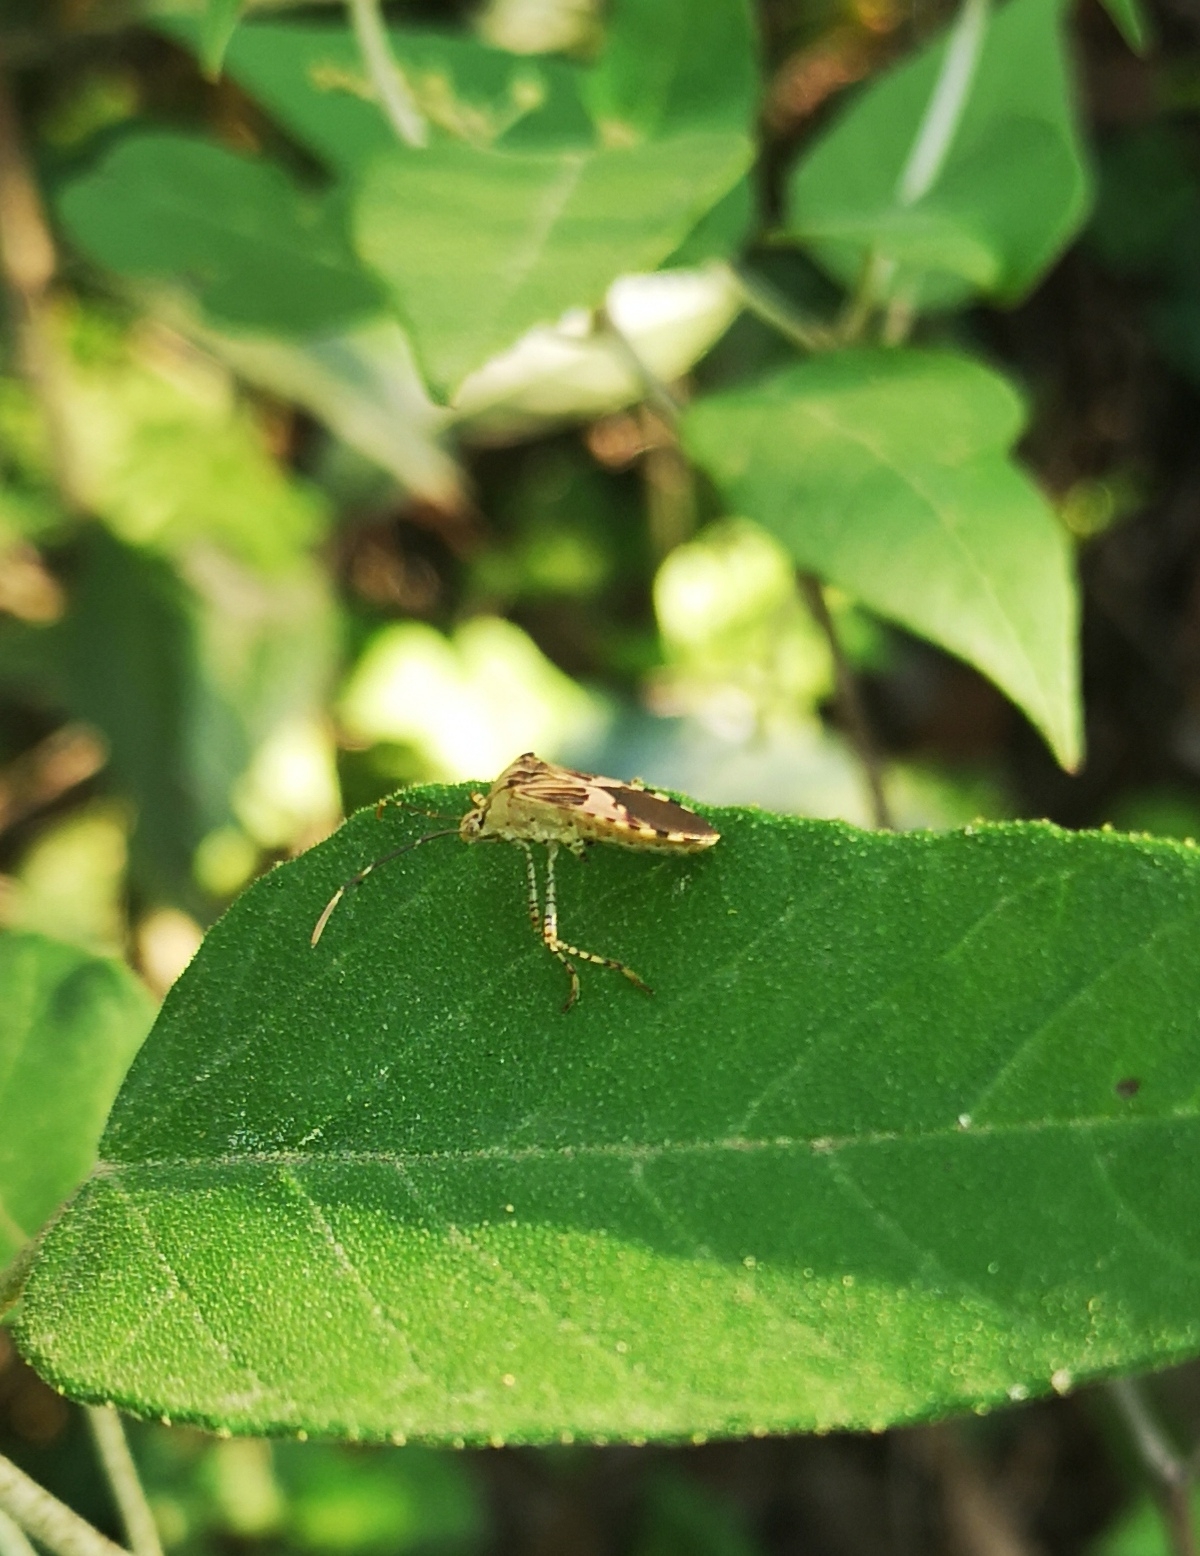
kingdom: Animalia
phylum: Arthropoda
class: Insecta
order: Hemiptera
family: Coreidae
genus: Hypselonotus
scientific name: Hypselonotus punctiventris
